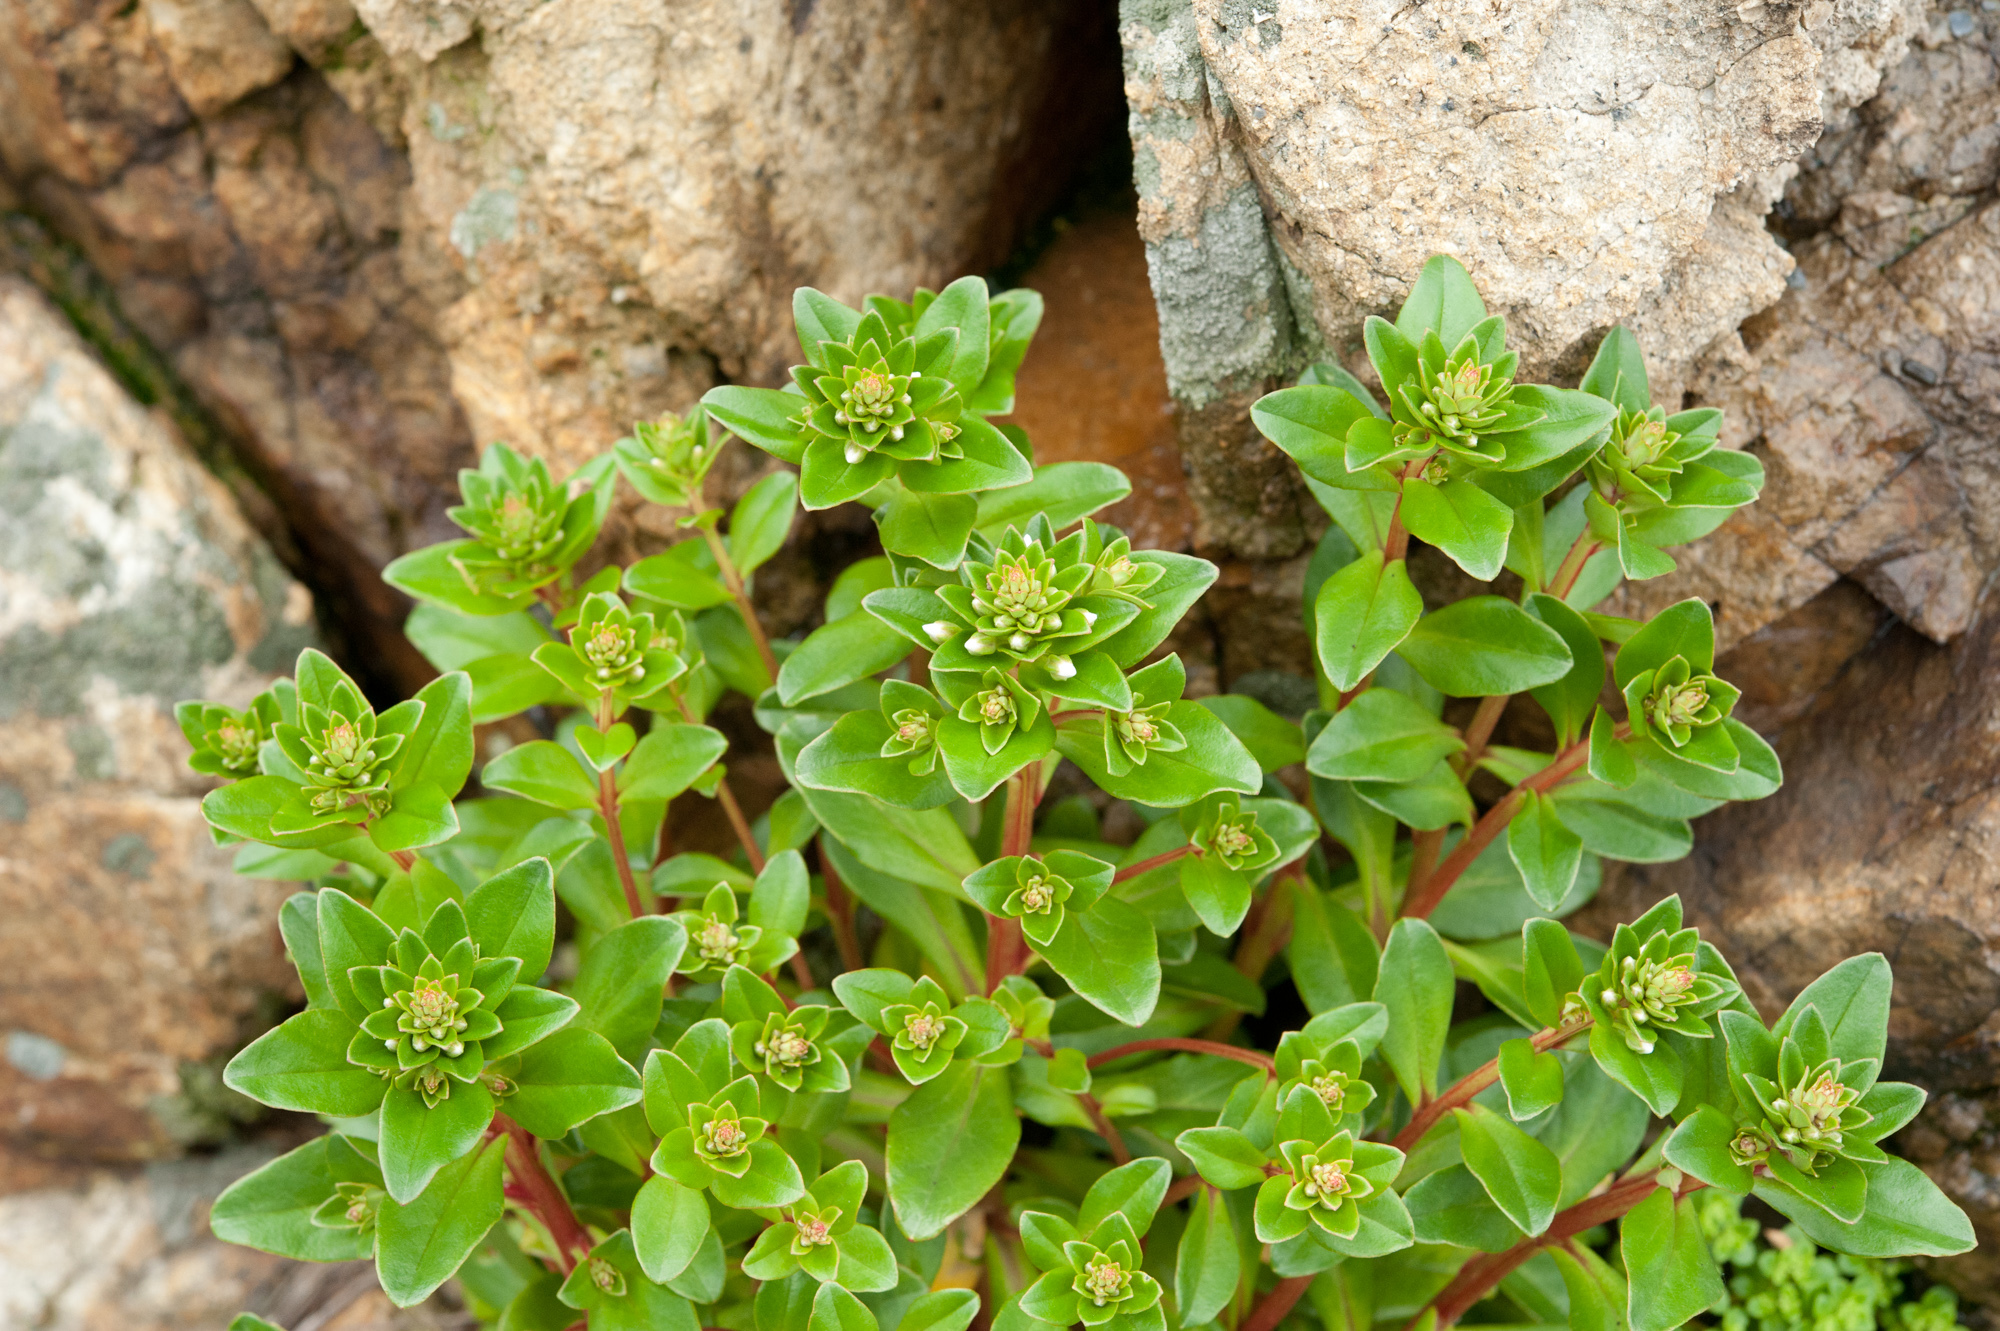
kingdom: Plantae
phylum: Tracheophyta
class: Magnoliopsida
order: Ericales
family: Primulaceae
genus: Lysimachia
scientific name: Lysimachia mauritiana
